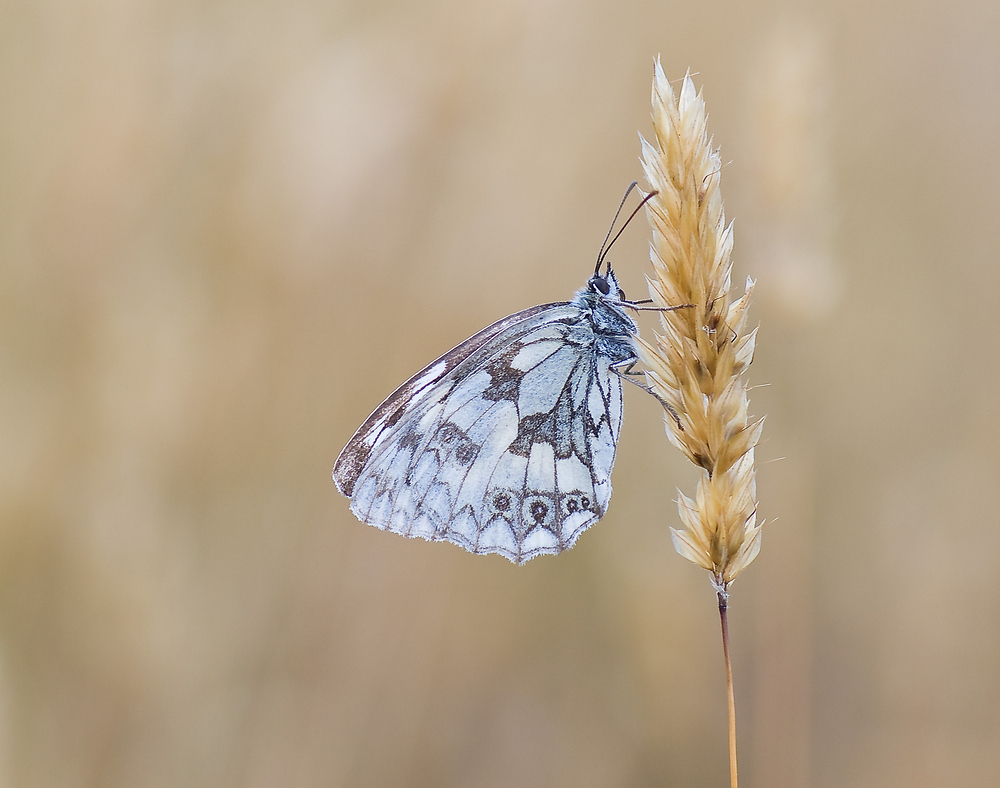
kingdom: Animalia
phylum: Arthropoda
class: Insecta
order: Lepidoptera
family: Nymphalidae
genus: Melanargia
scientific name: Melanargia galathea
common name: Marbled white
